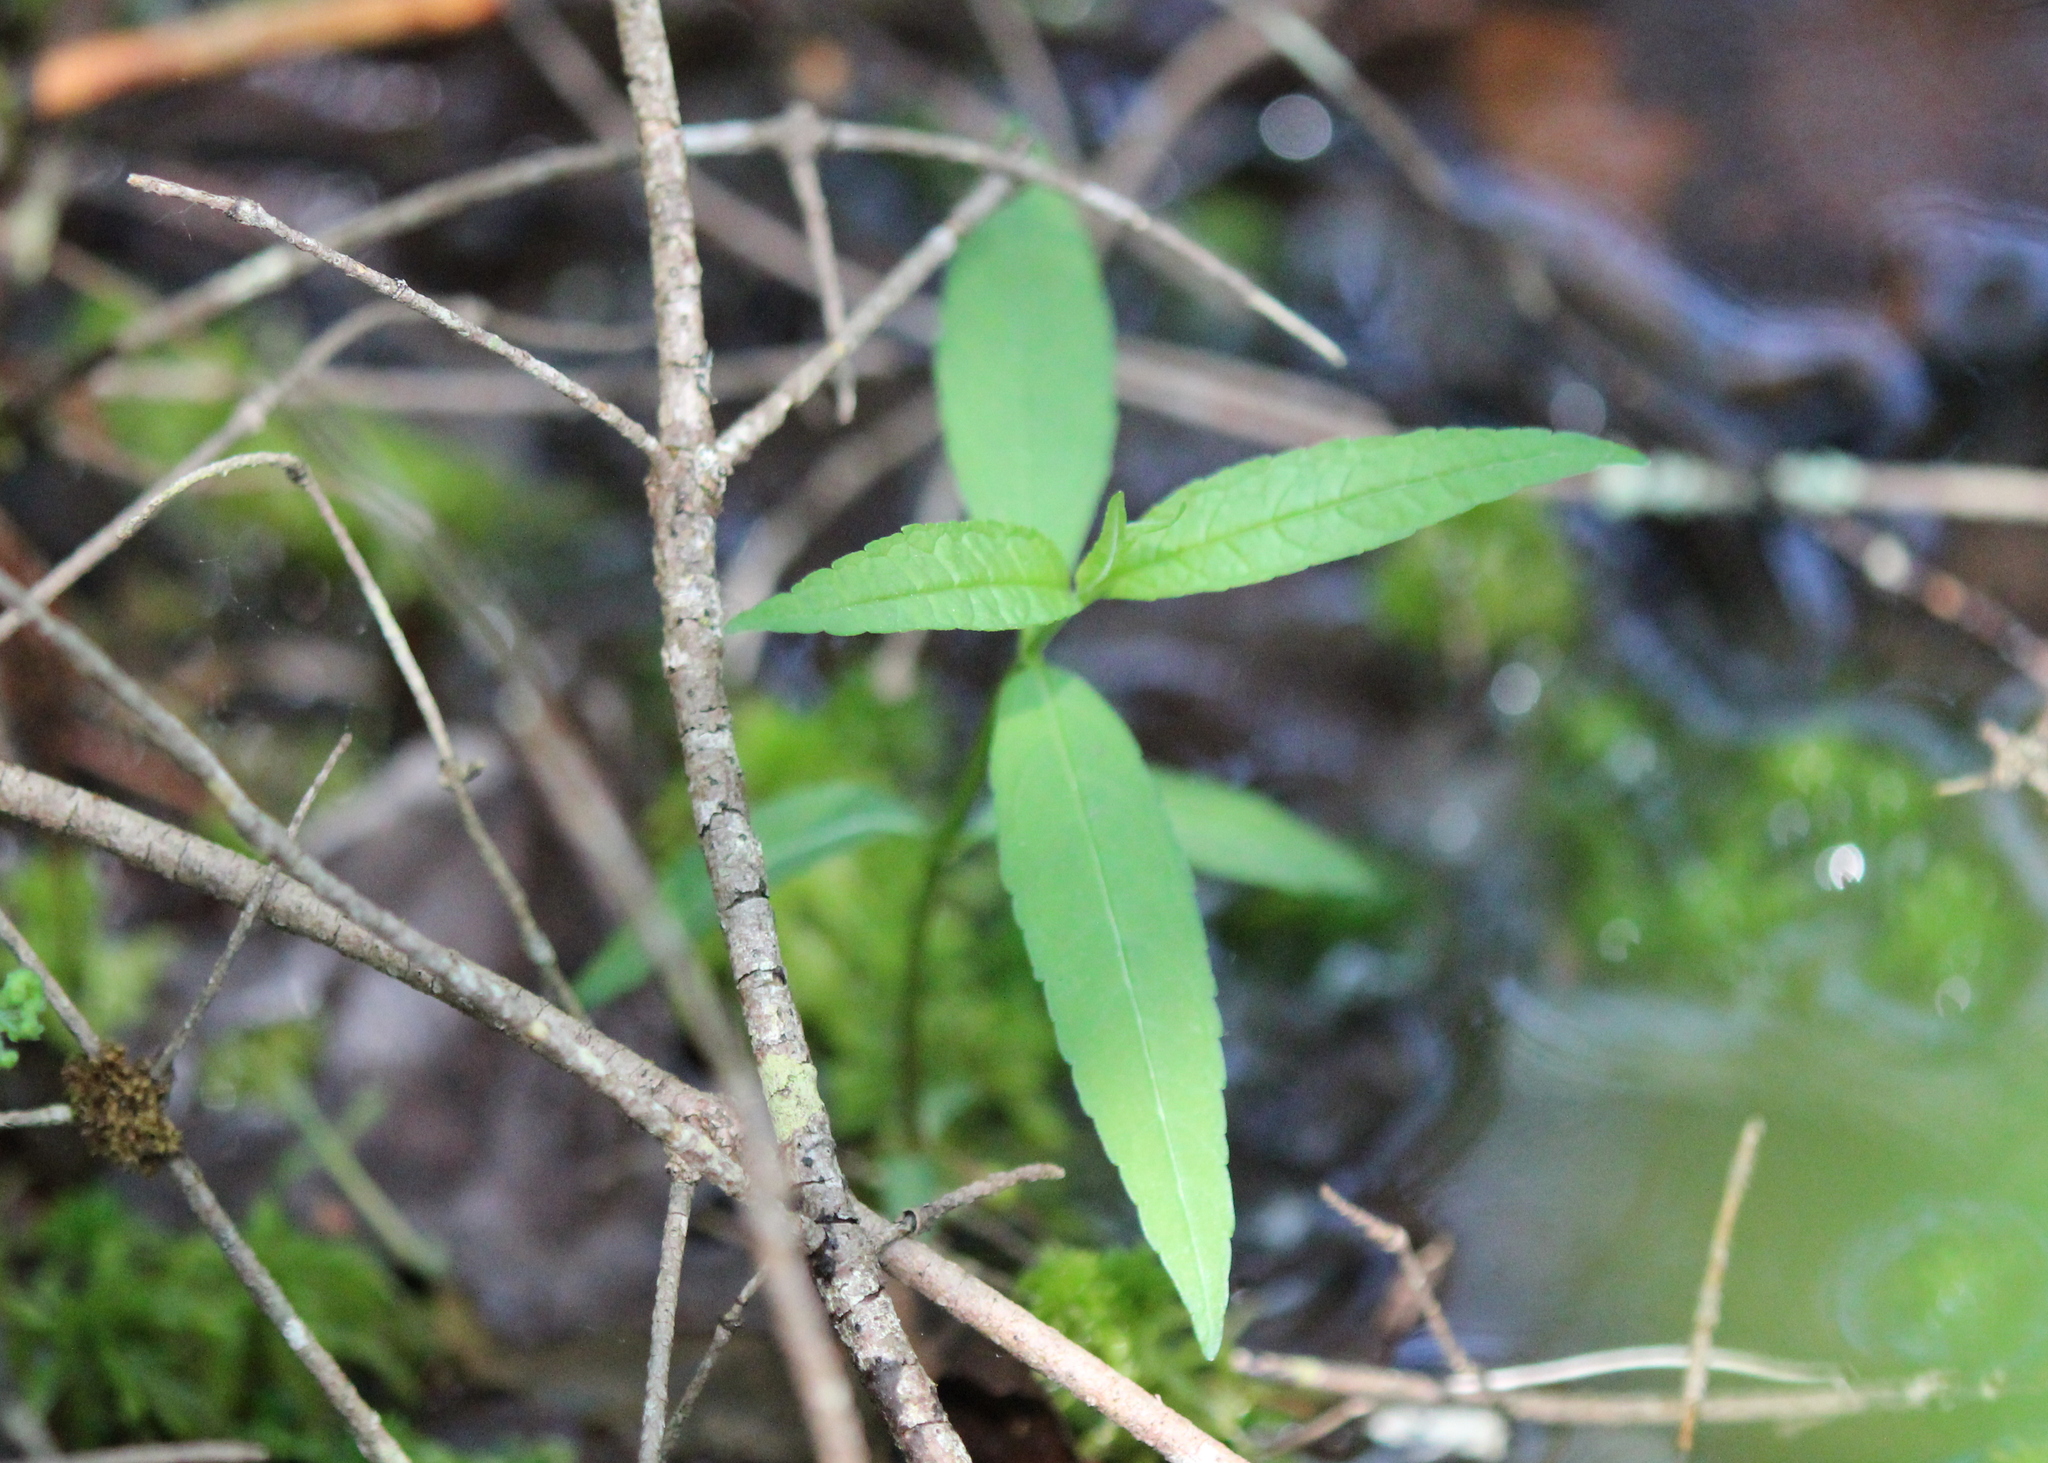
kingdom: Plantae
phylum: Tracheophyta
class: Magnoliopsida
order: Lamiales
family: Plantaginaceae
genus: Chelone
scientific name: Chelone glabra
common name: Snakehead
